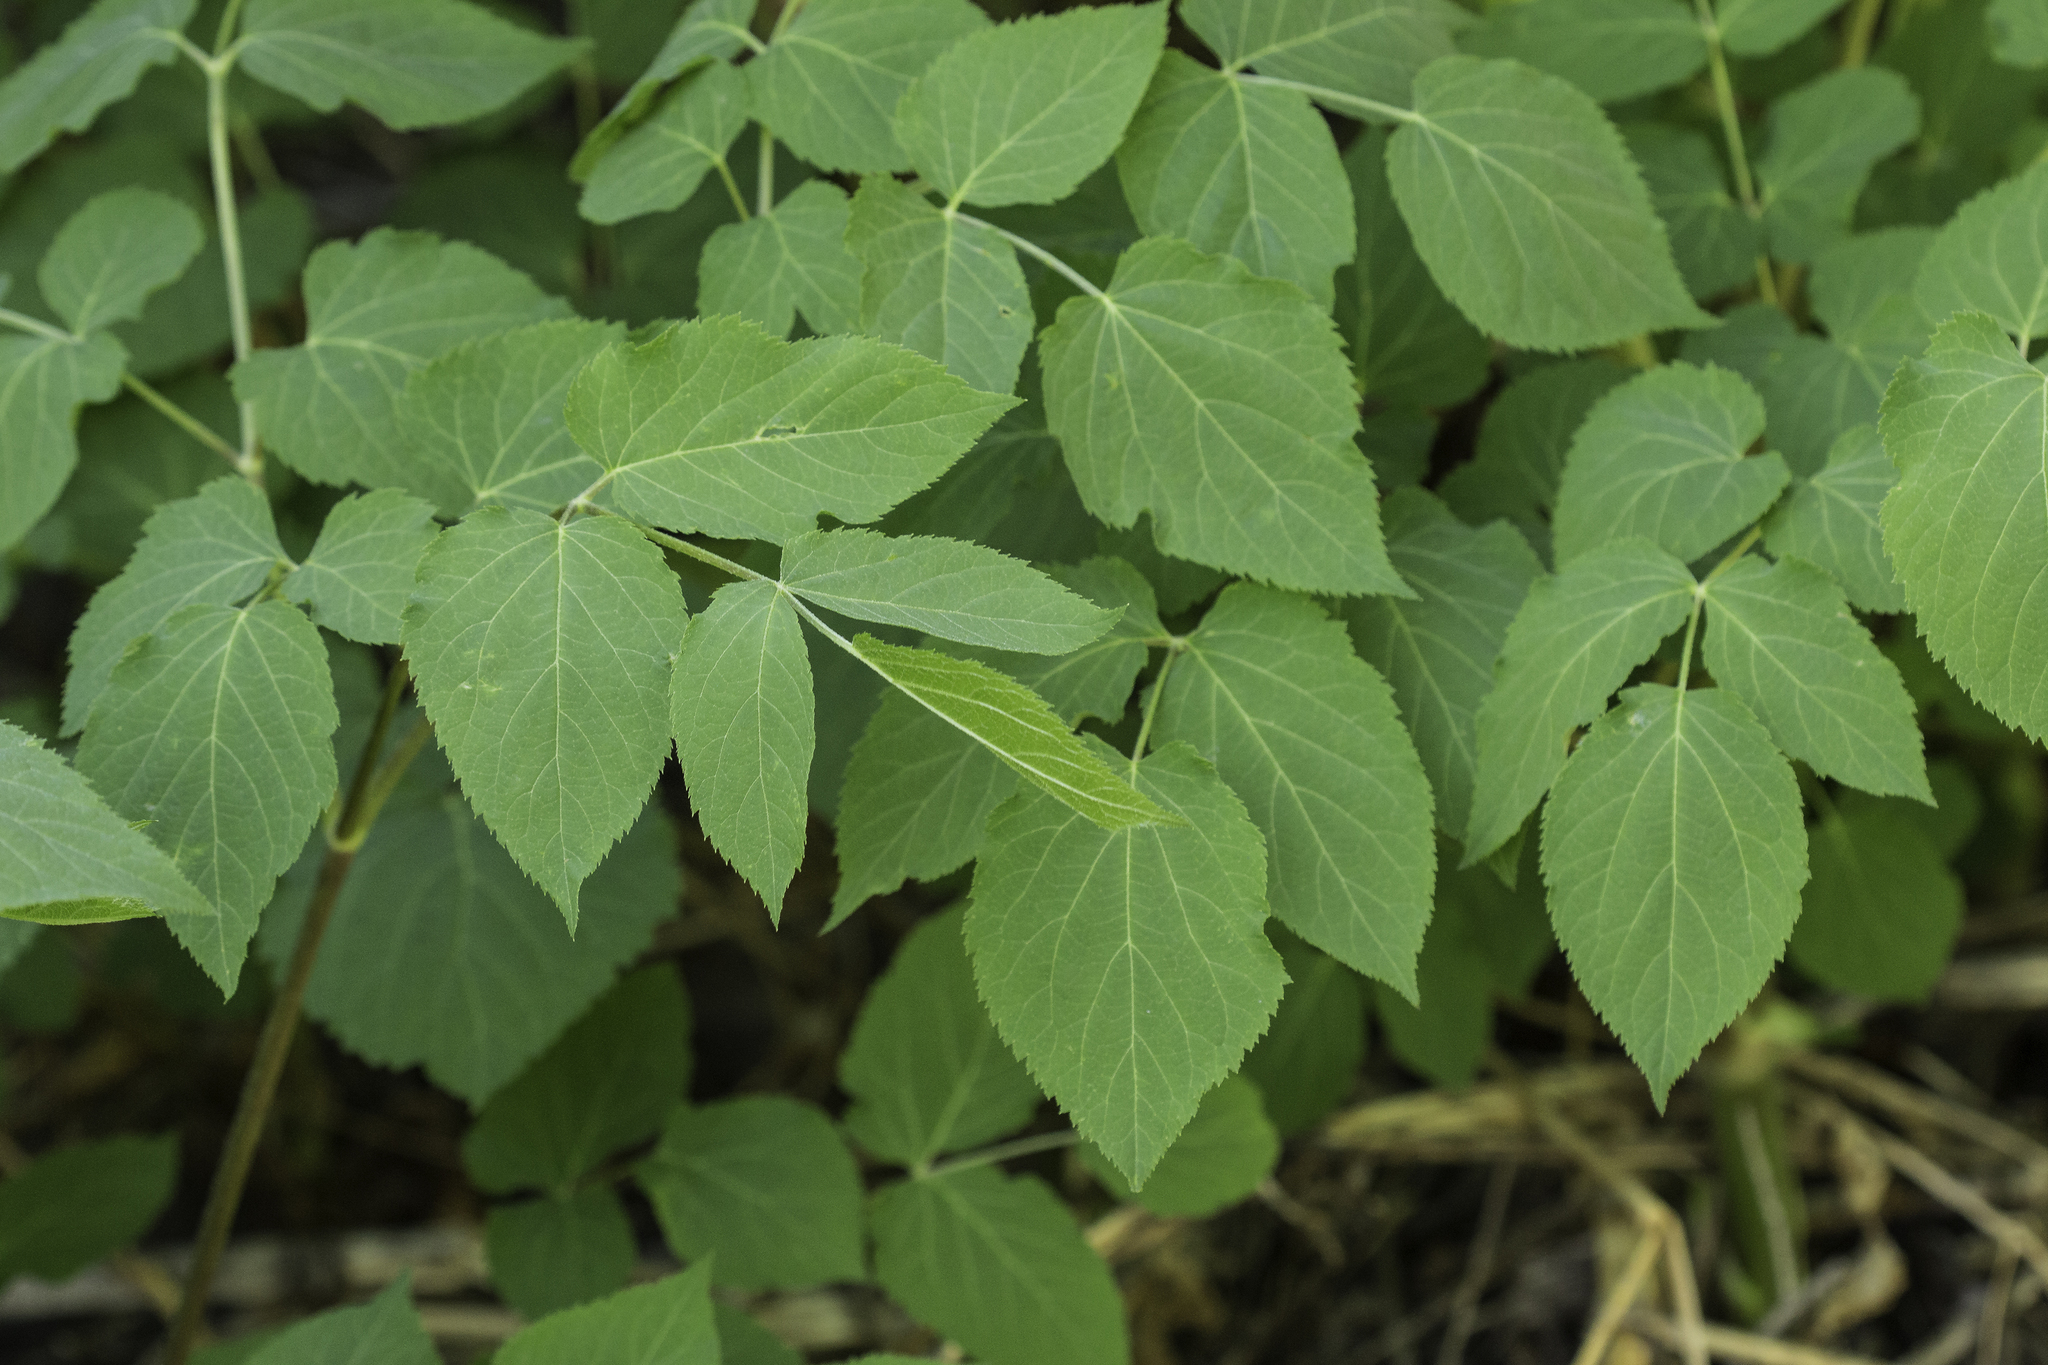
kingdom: Plantae
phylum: Tracheophyta
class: Magnoliopsida
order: Apiales
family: Araliaceae
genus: Aralia
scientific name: Aralia bicrenata
